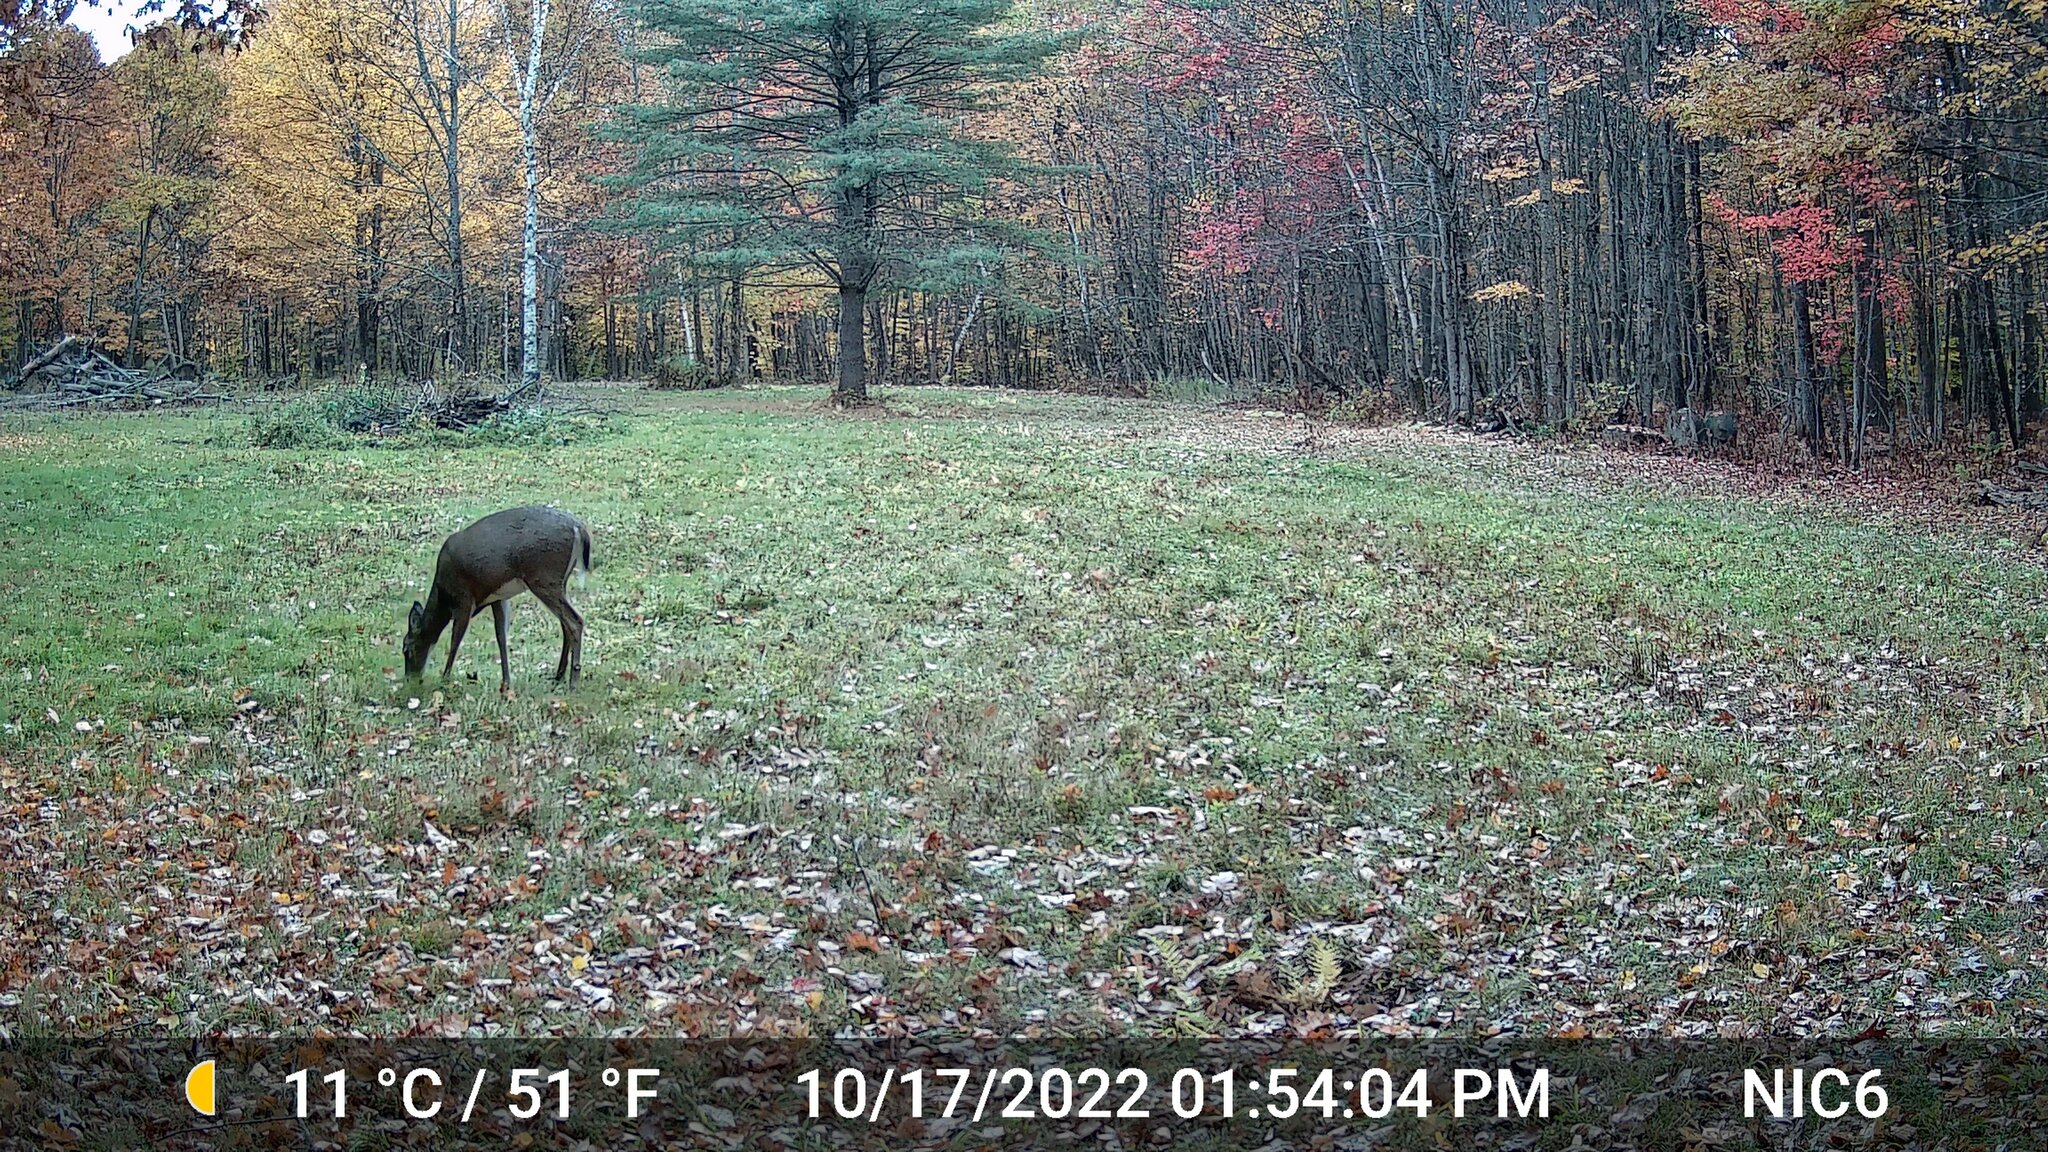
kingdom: Animalia
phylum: Chordata
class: Mammalia
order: Artiodactyla
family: Cervidae
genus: Odocoileus
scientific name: Odocoileus virginianus
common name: White-tailed deer
